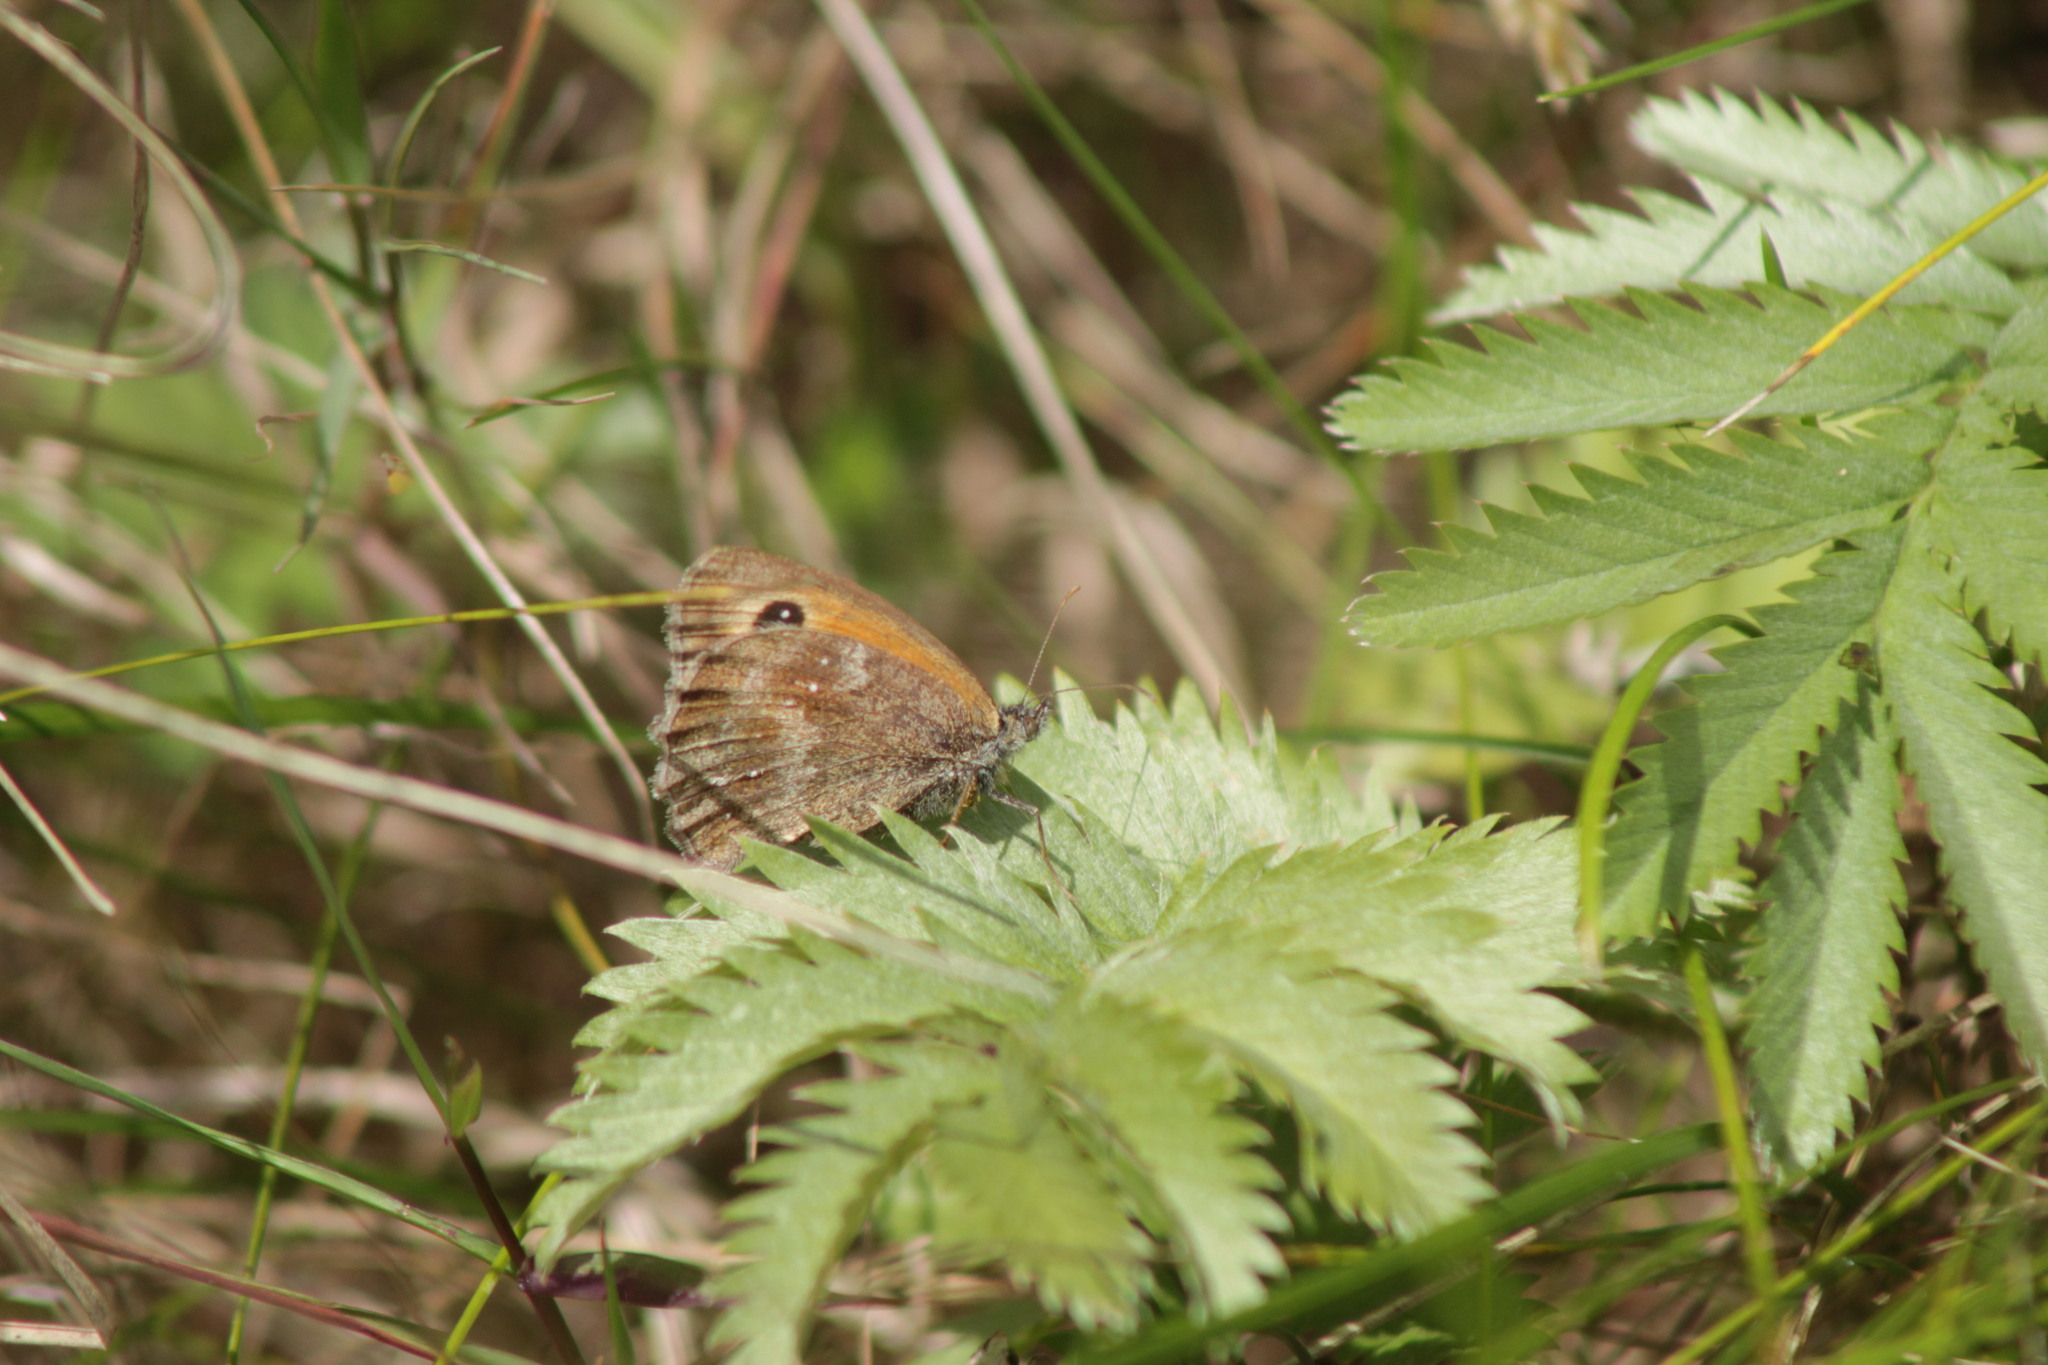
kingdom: Animalia
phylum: Arthropoda
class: Insecta
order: Lepidoptera
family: Nymphalidae
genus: Pyronia
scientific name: Pyronia tithonus
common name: Gatekeeper
